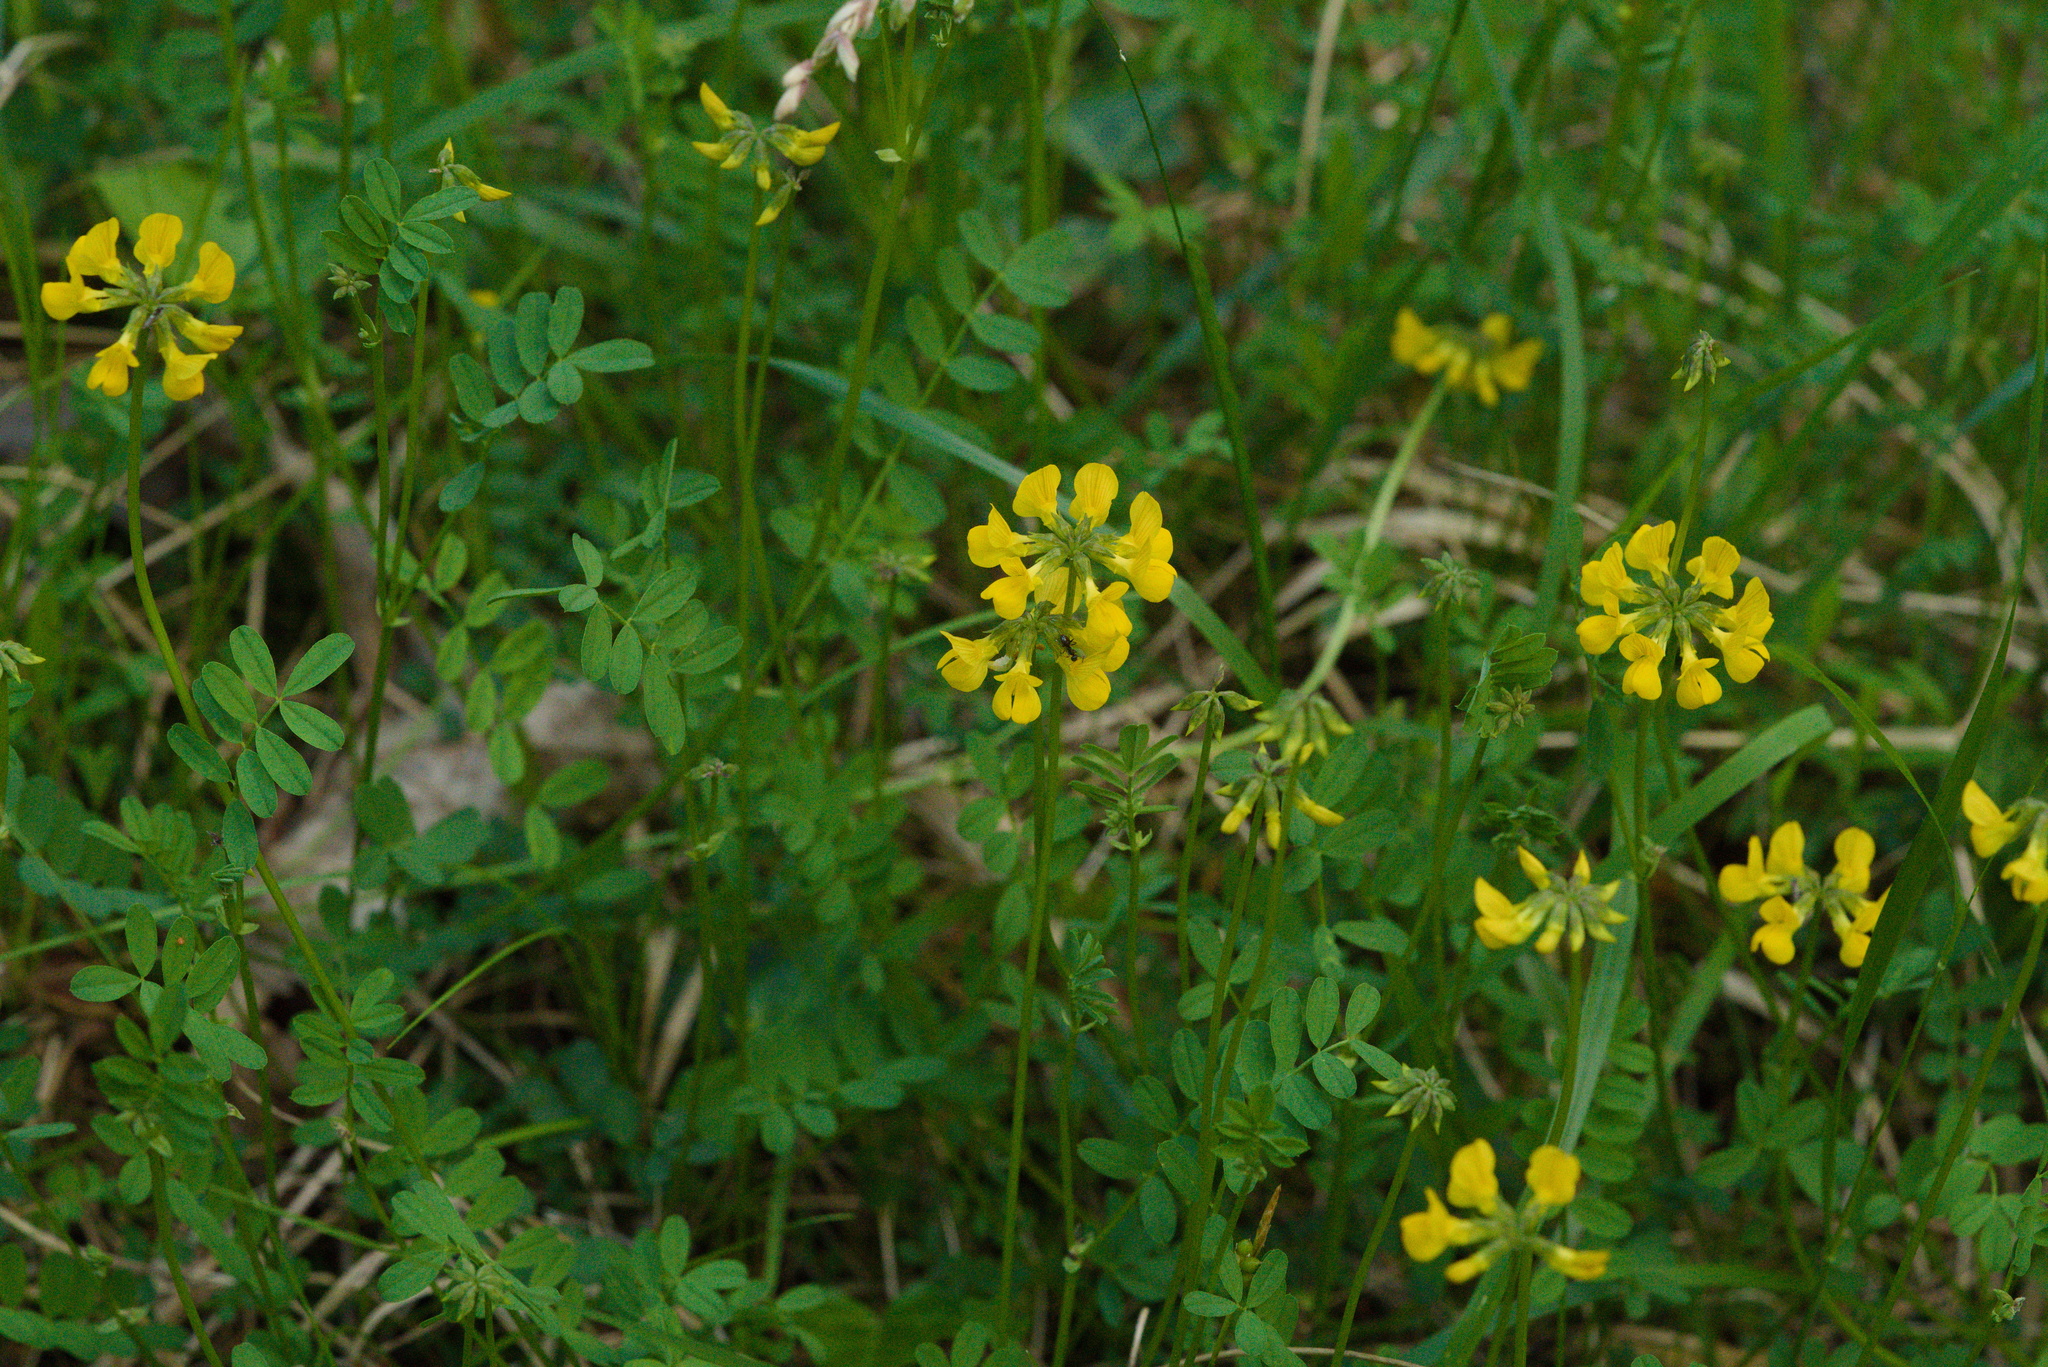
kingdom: Plantae
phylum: Tracheophyta
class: Magnoliopsida
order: Fabales
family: Fabaceae
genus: Hippocrepis
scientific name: Hippocrepis comosa
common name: Horseshoe vetch
